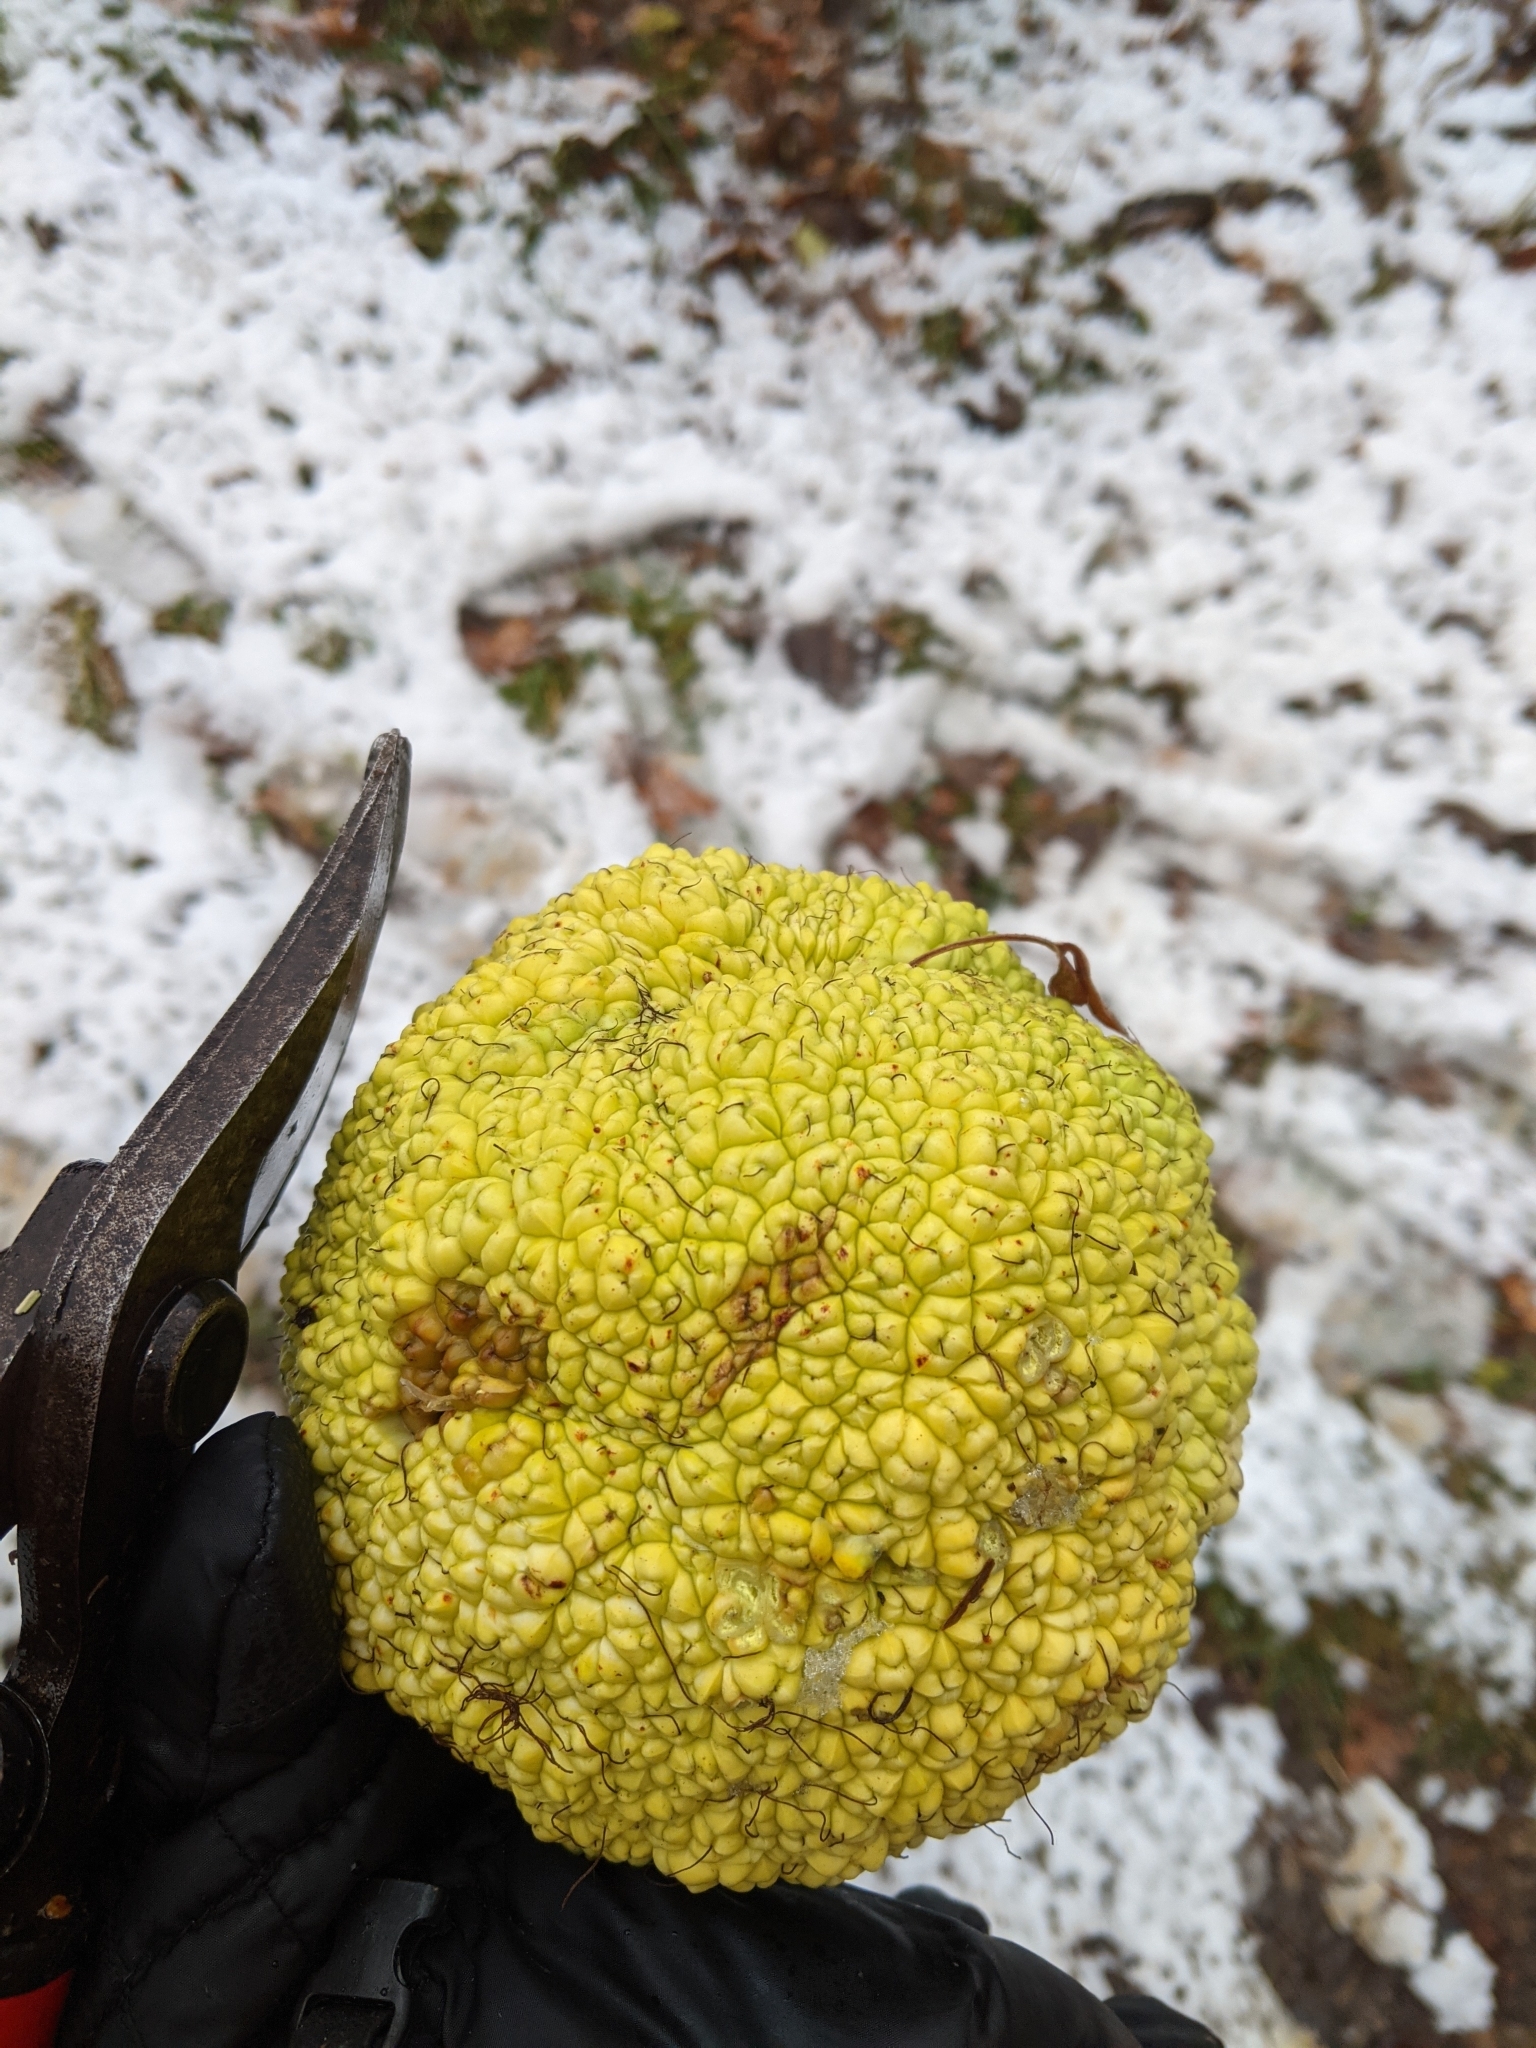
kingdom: Plantae
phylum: Tracheophyta
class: Magnoliopsida
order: Rosales
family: Moraceae
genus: Maclura
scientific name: Maclura pomifera
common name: Osage-orange
